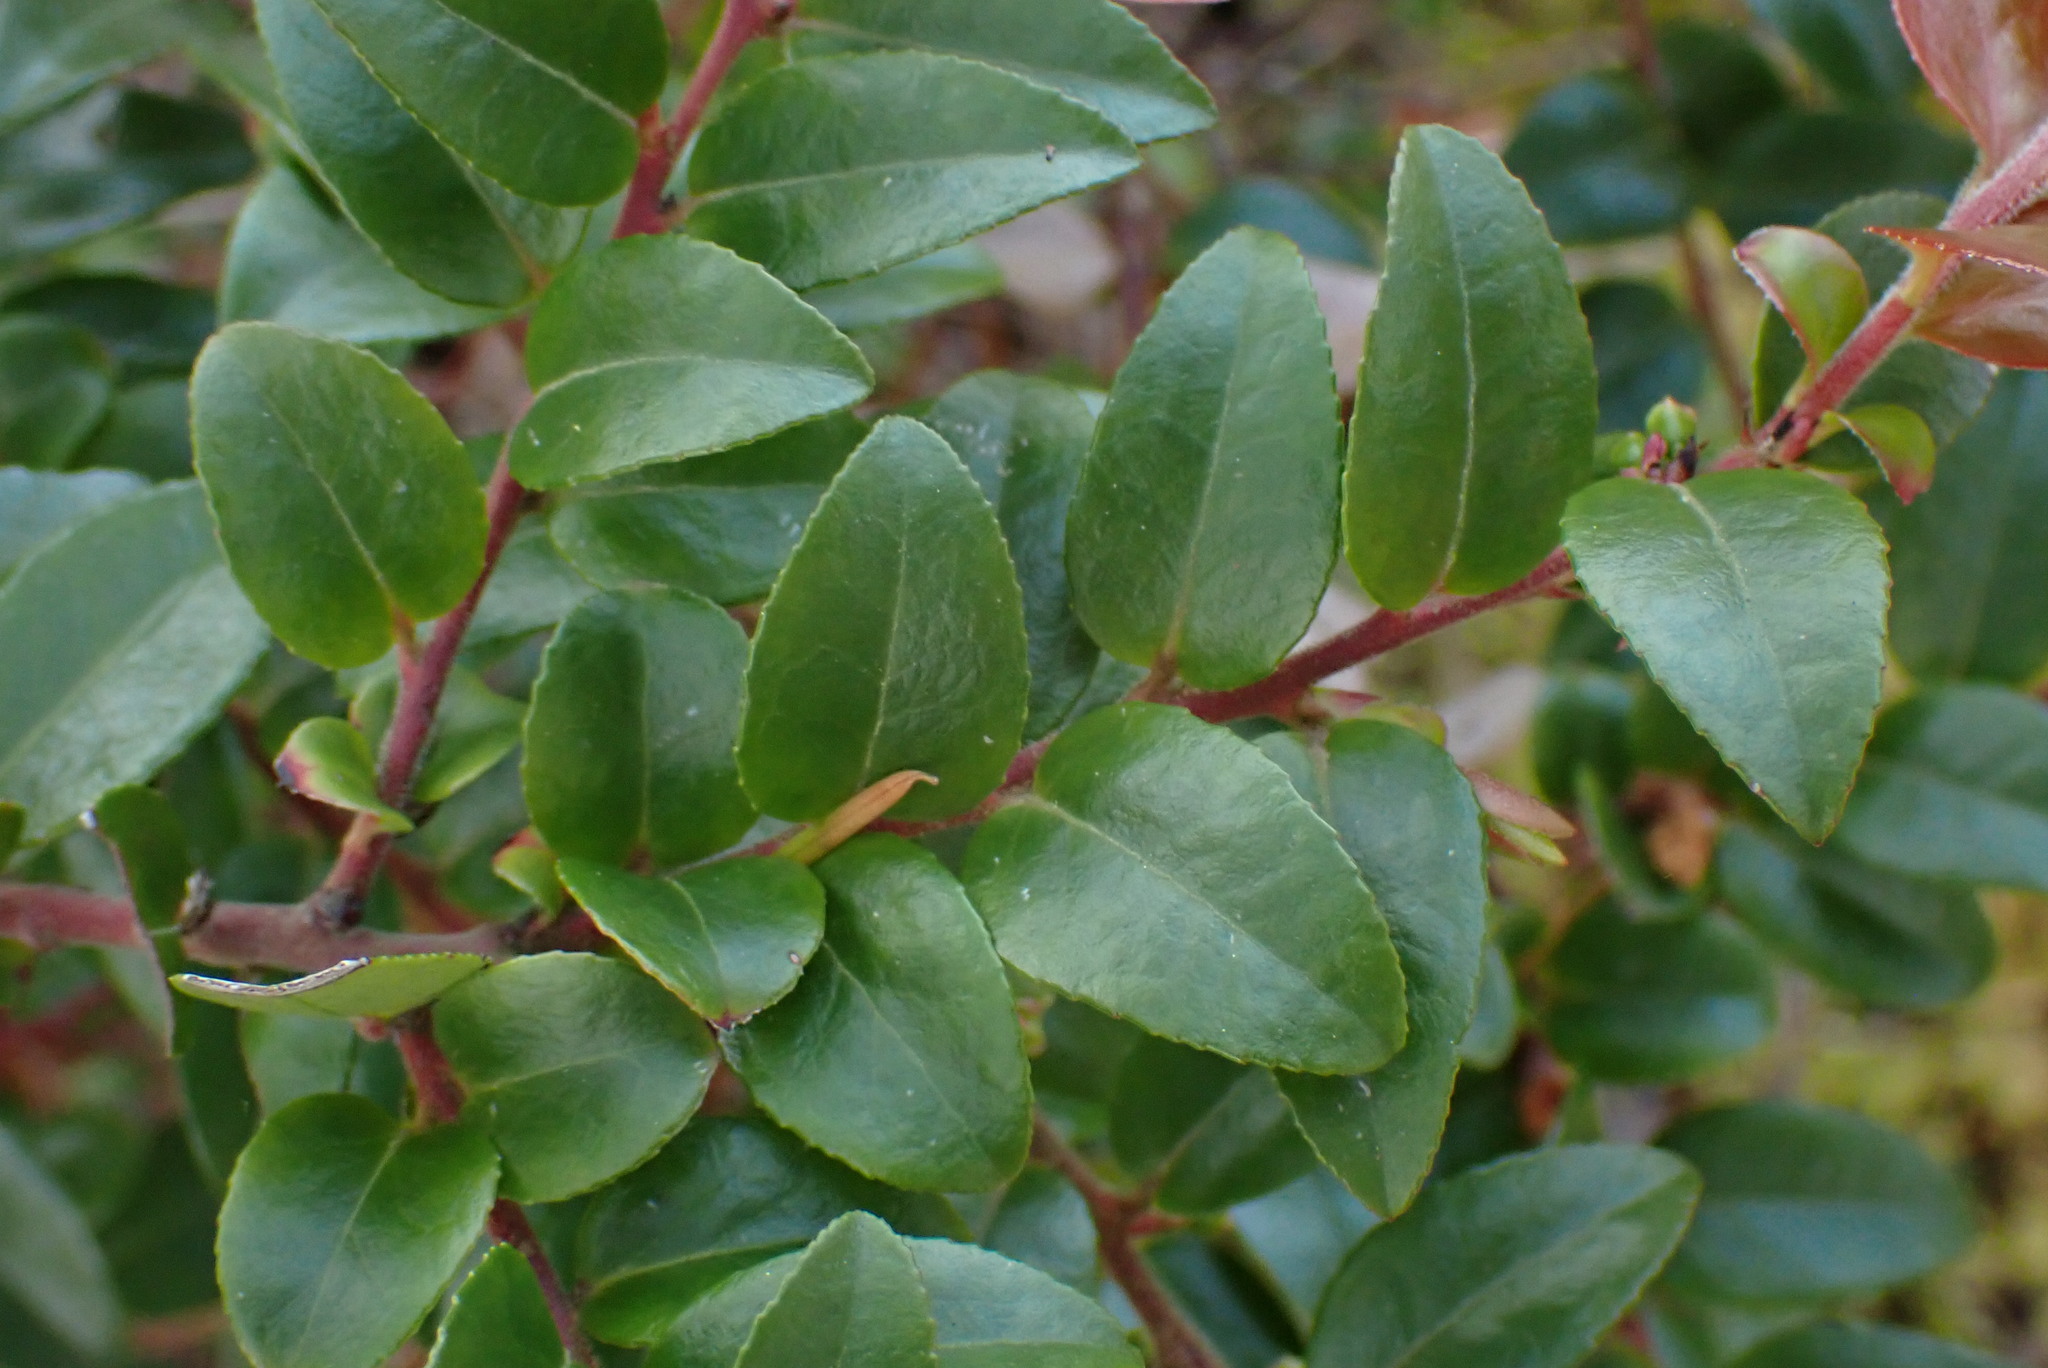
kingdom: Plantae
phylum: Tracheophyta
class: Magnoliopsida
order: Ericales
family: Ericaceae
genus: Vaccinium
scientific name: Vaccinium ovatum
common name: California-huckleberry
